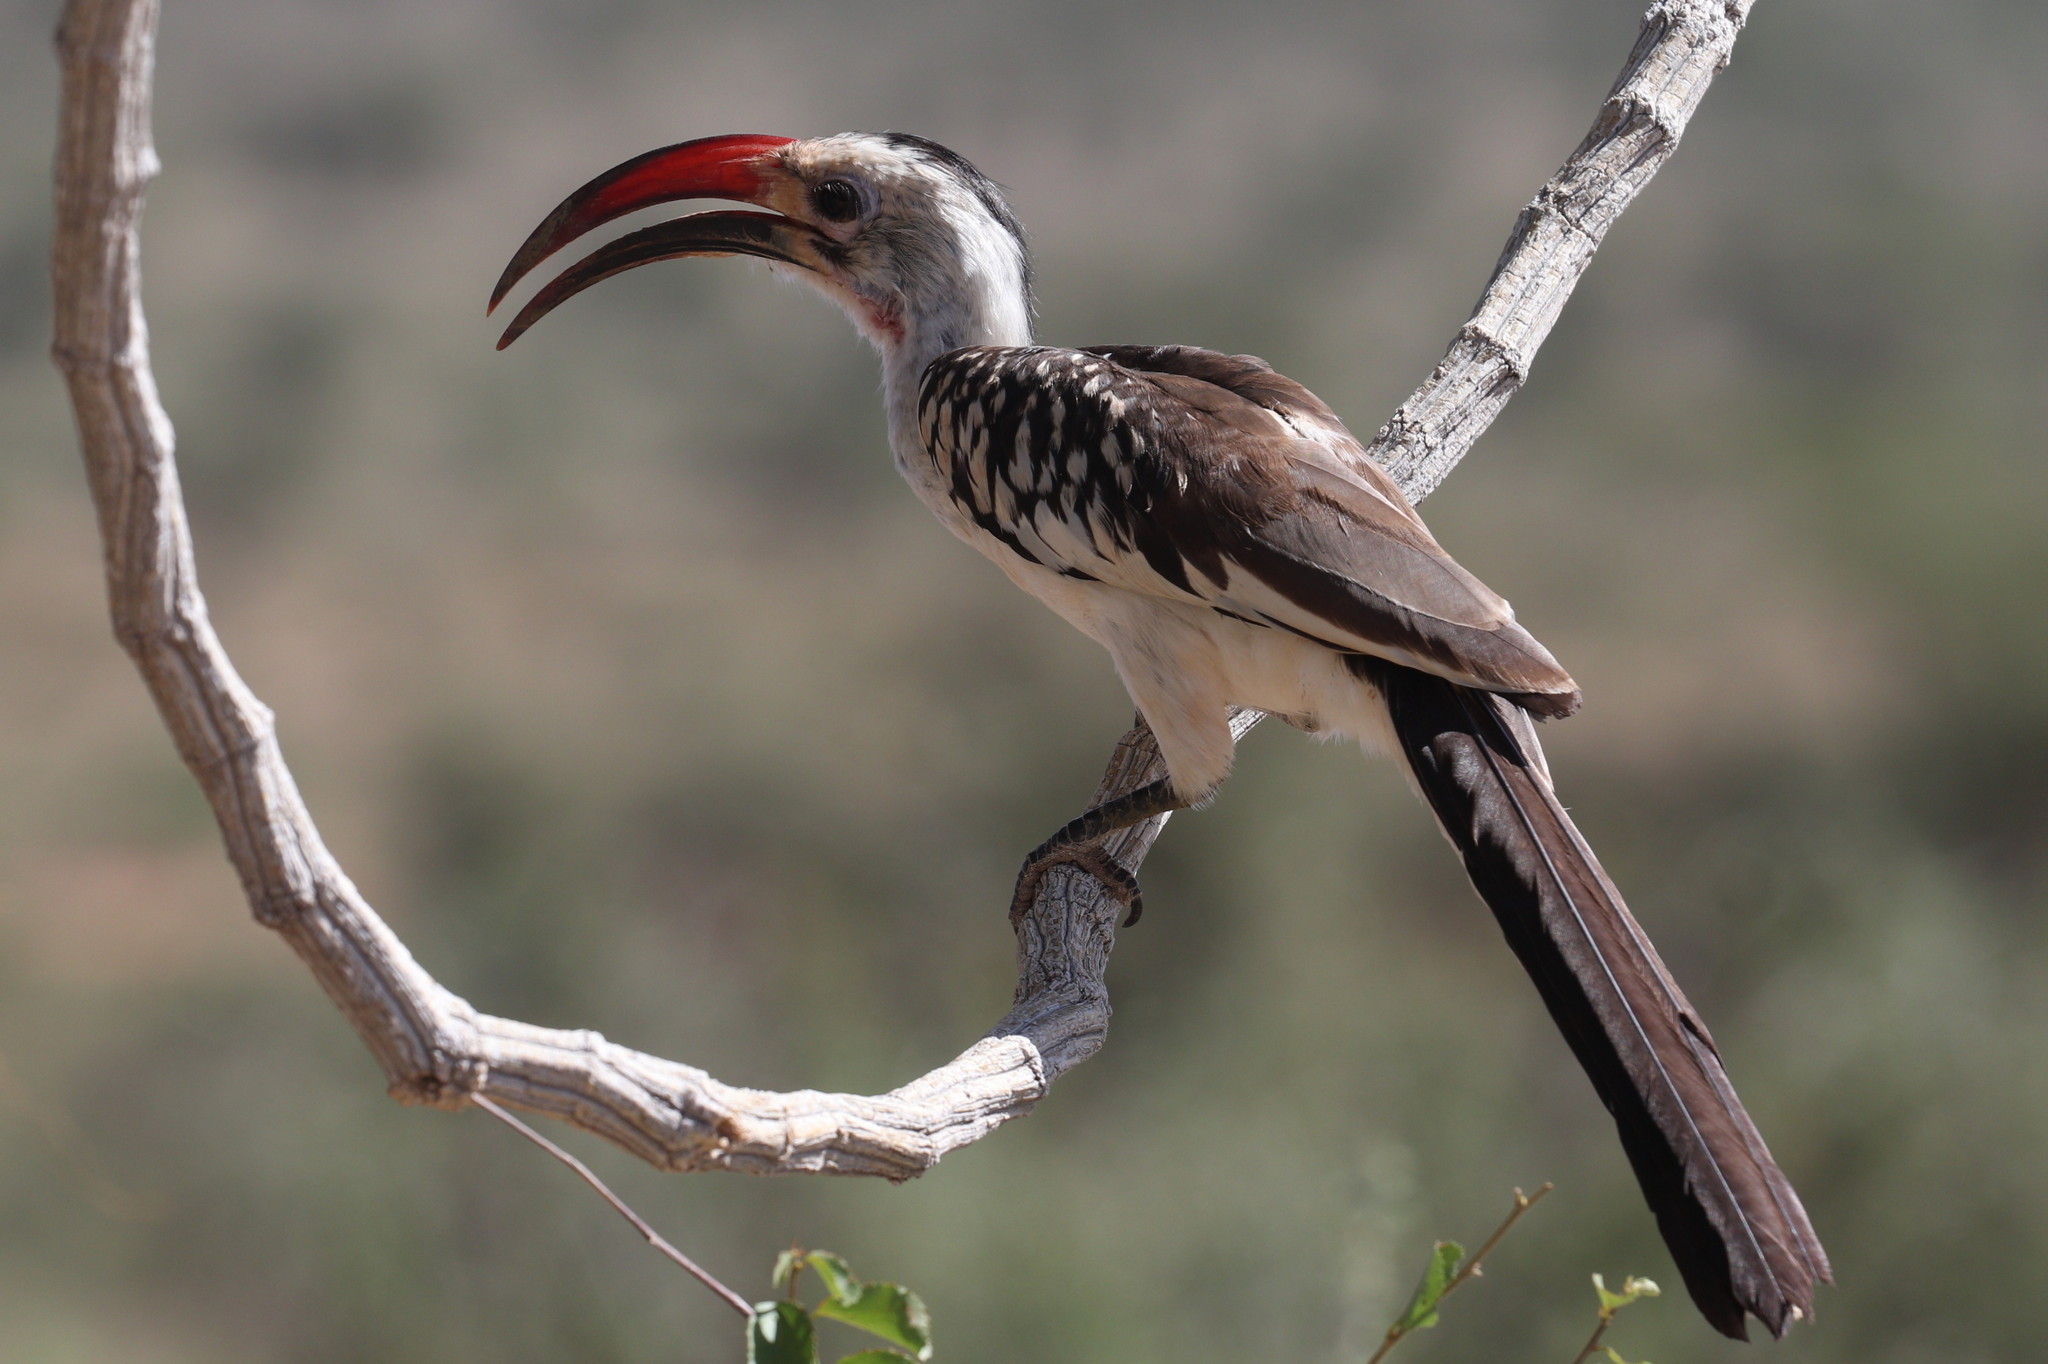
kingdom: Animalia
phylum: Chordata
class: Aves
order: Bucerotiformes
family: Bucerotidae
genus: Tockus
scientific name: Tockus erythrorhynchus
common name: Northern red-billed hornbill
